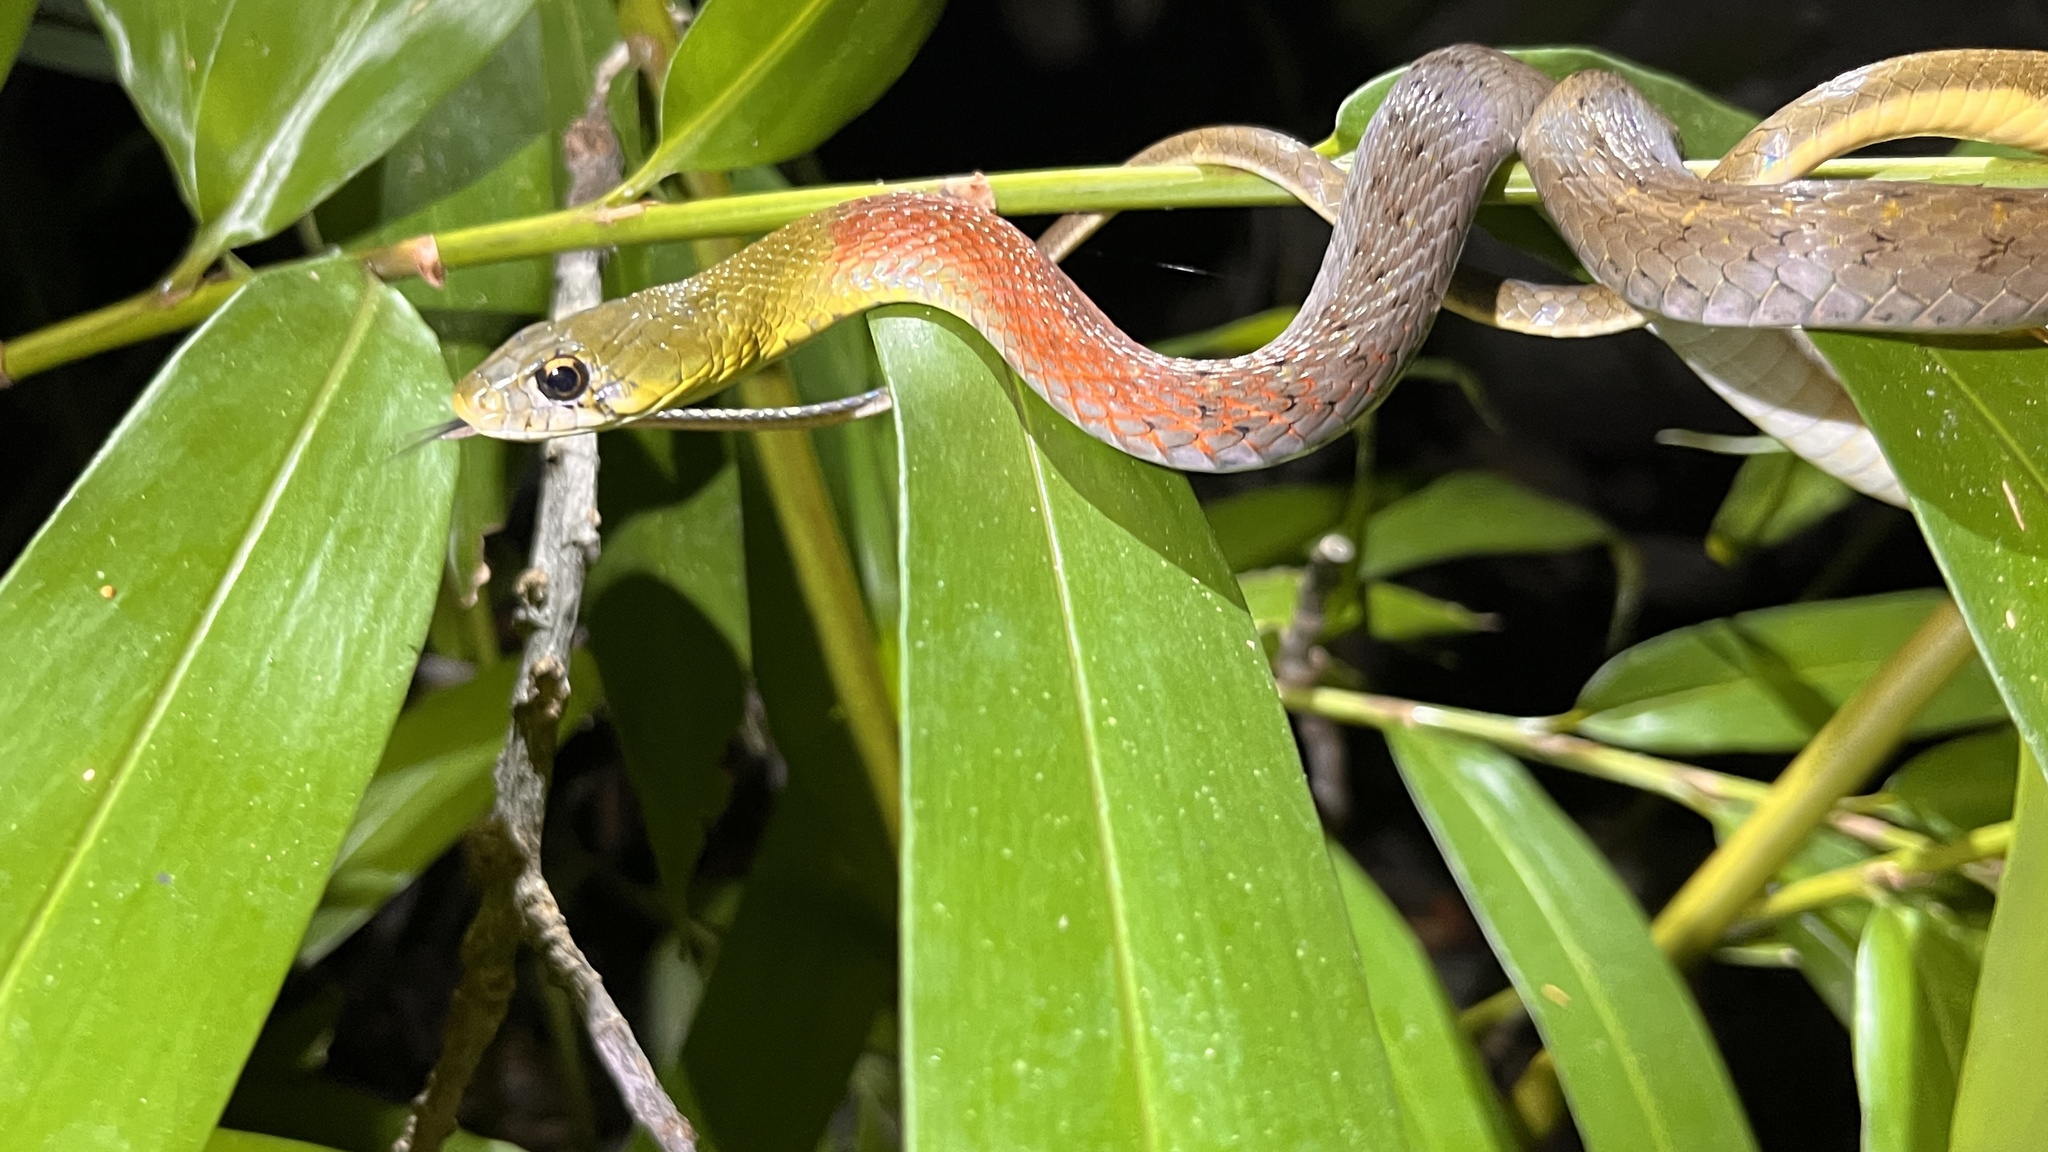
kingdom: Animalia
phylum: Chordata
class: Squamata
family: Colubridae
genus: Rhabdophis
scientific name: Rhabdophis
